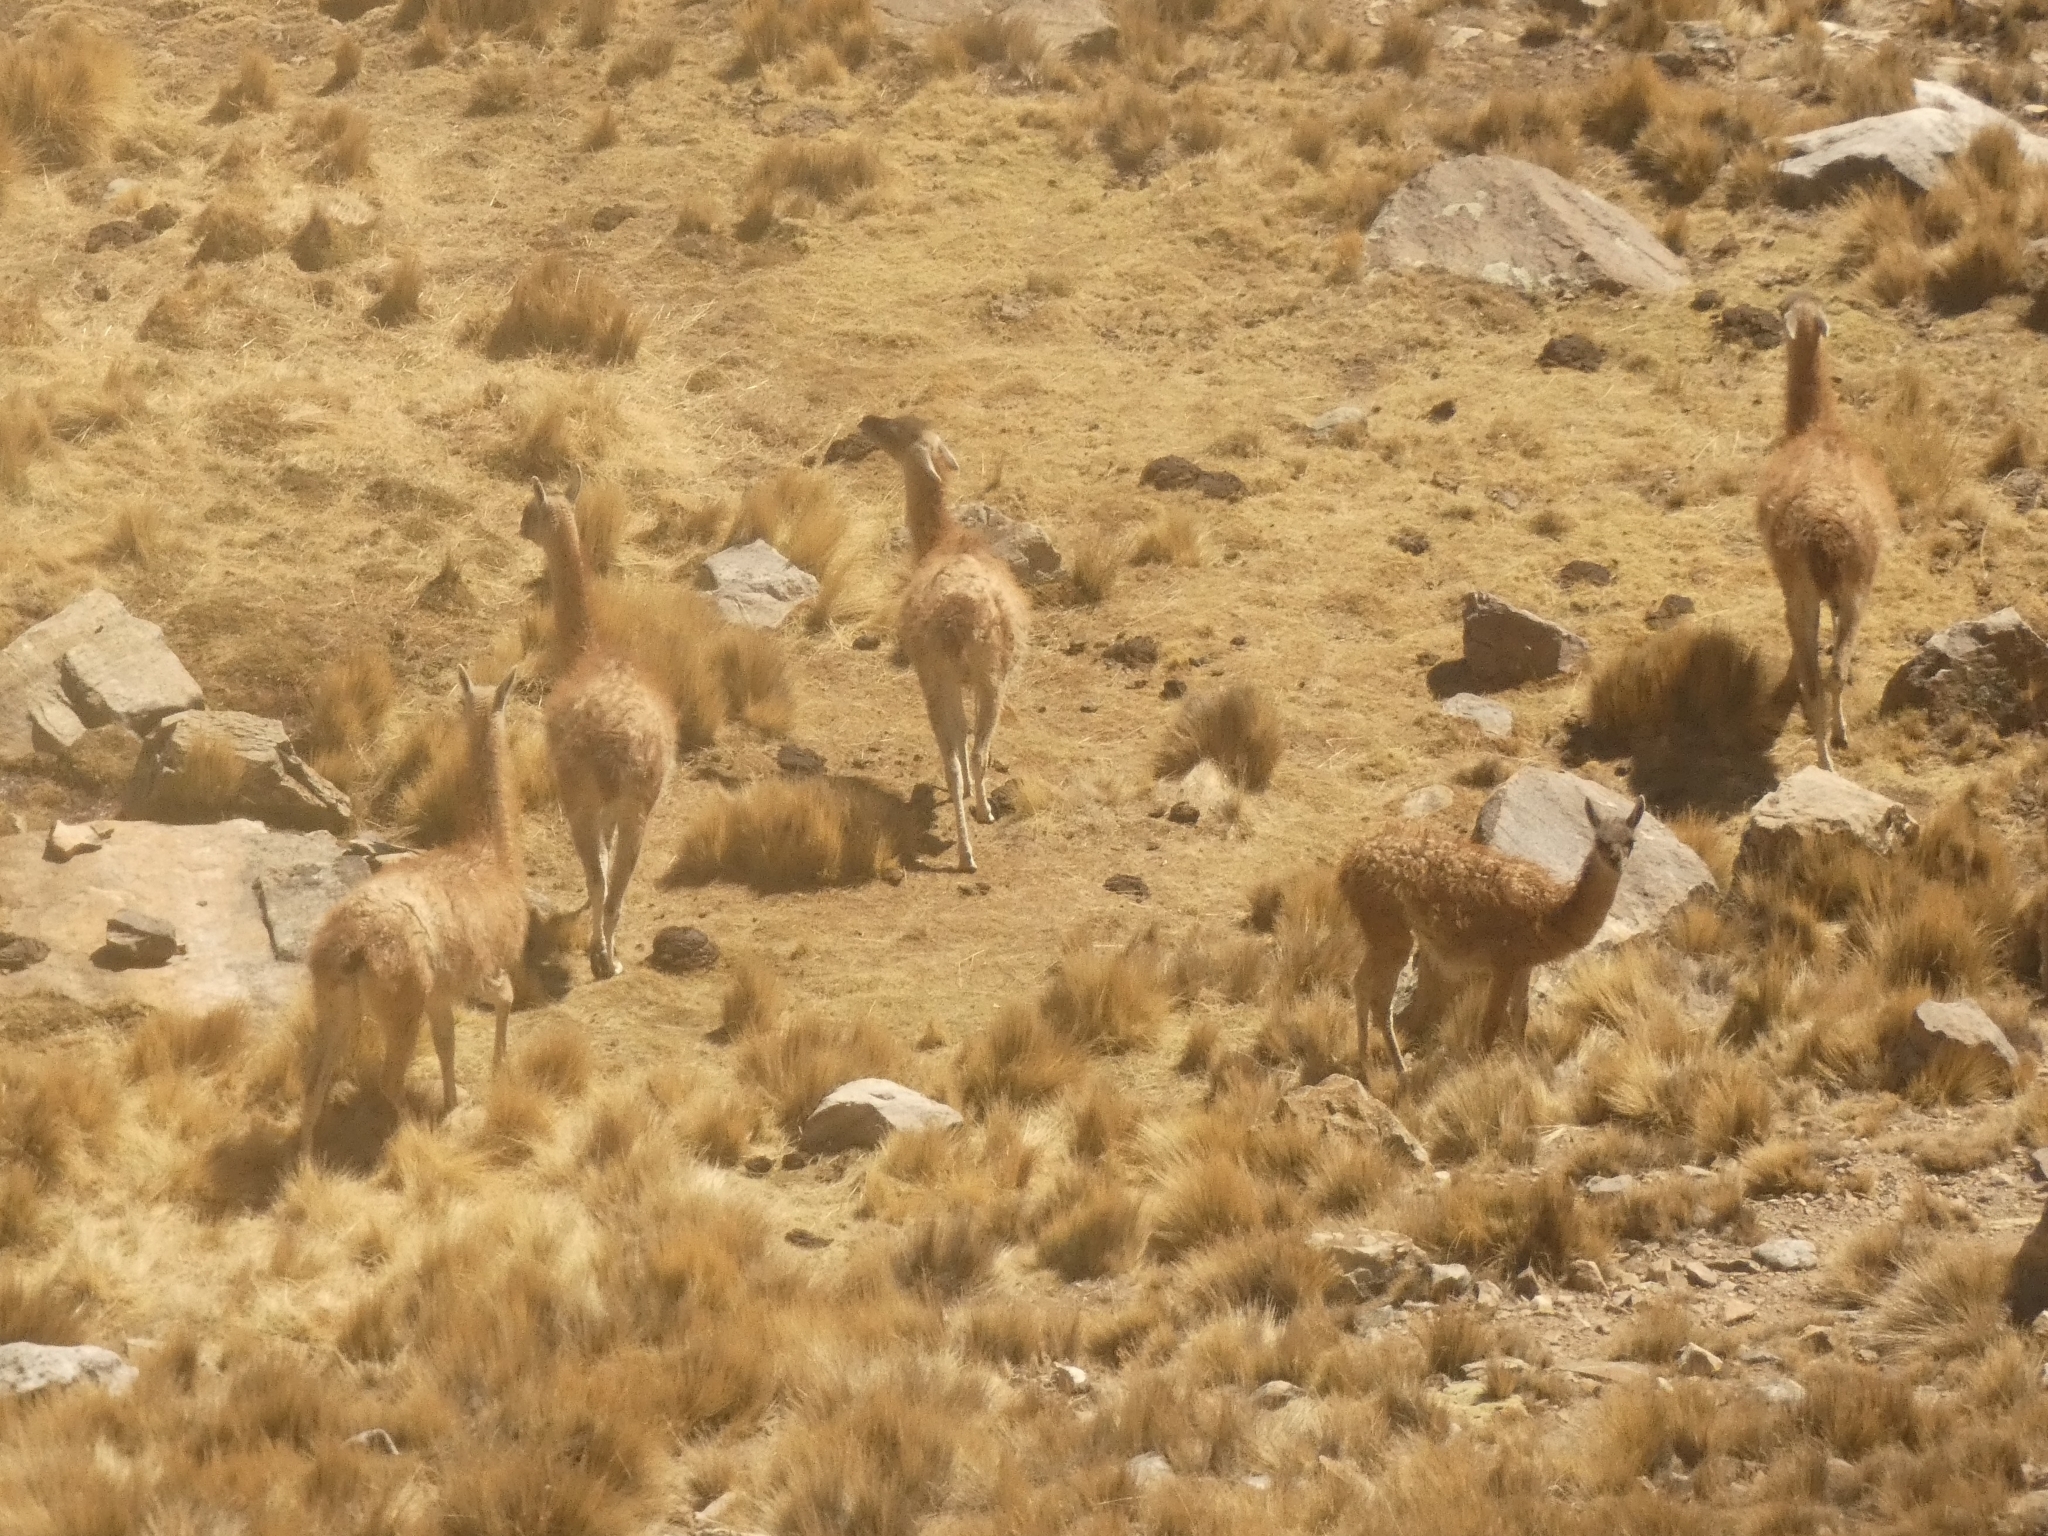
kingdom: Animalia
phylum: Chordata
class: Mammalia
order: Artiodactyla
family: Camelidae
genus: Lama
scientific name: Lama glama
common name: Llama
